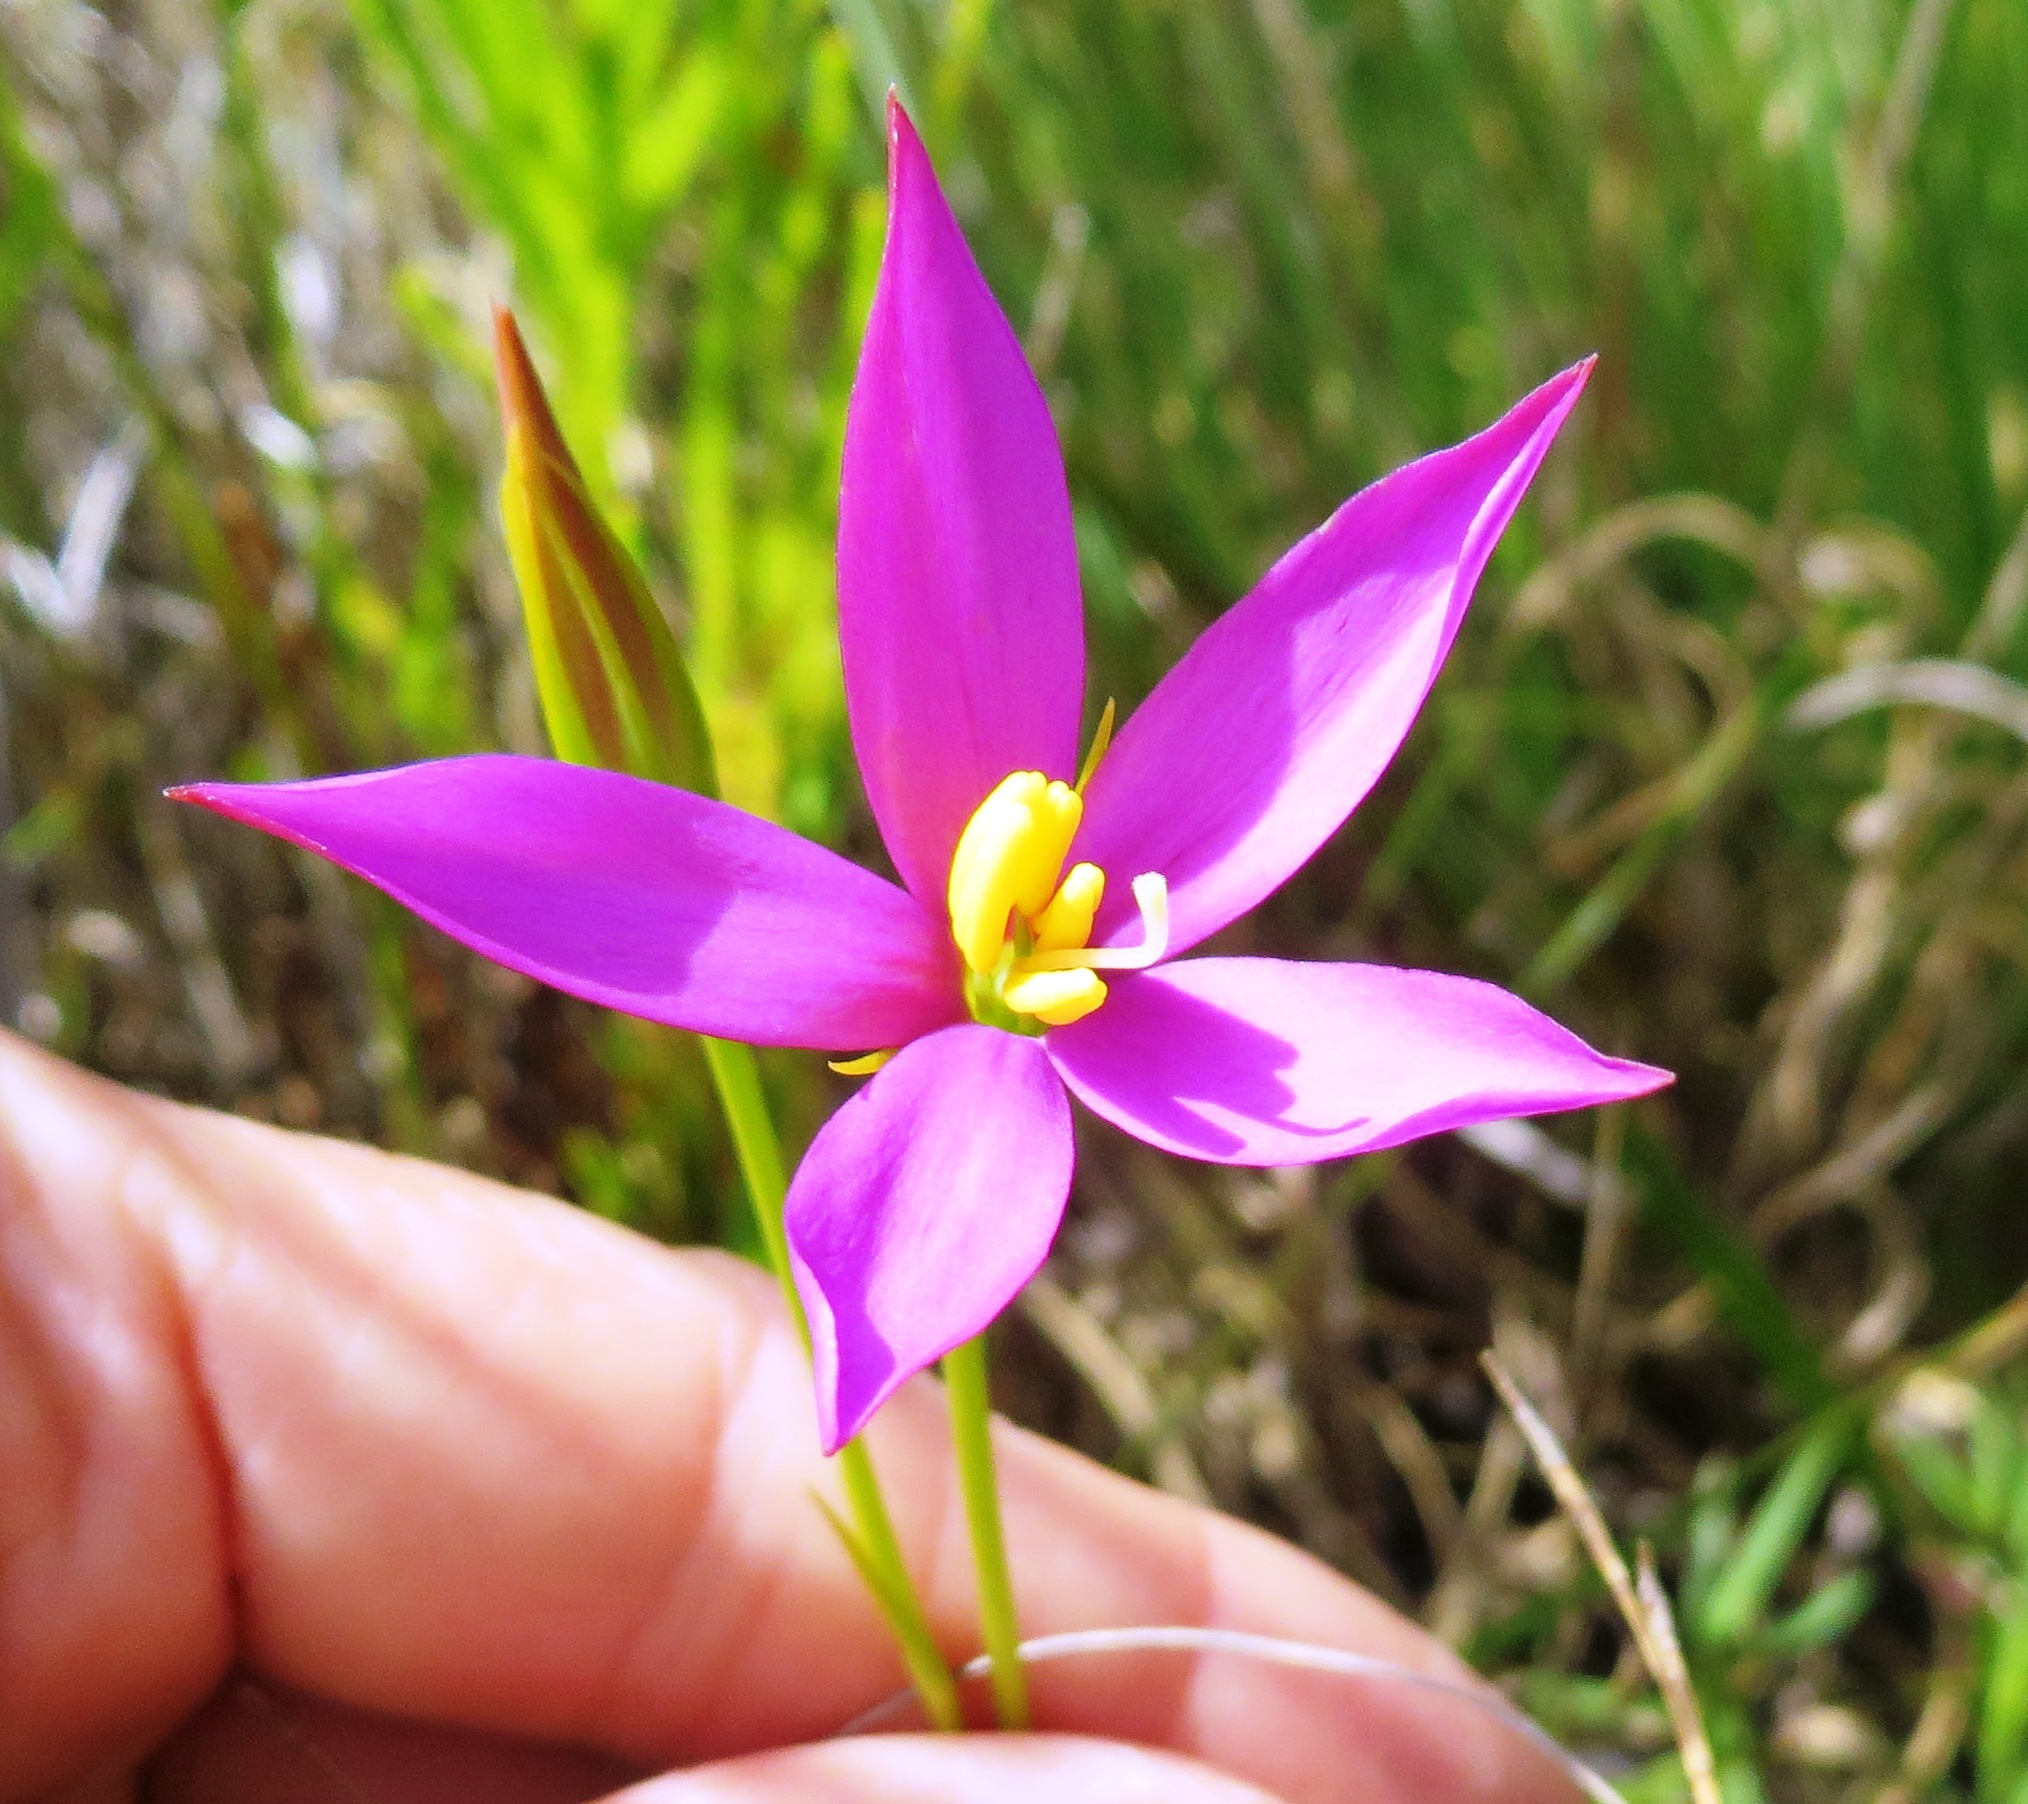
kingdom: Plantae
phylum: Tracheophyta
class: Magnoliopsida
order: Gentianales
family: Gentianaceae
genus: Chironia
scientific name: Chironia tetragona
